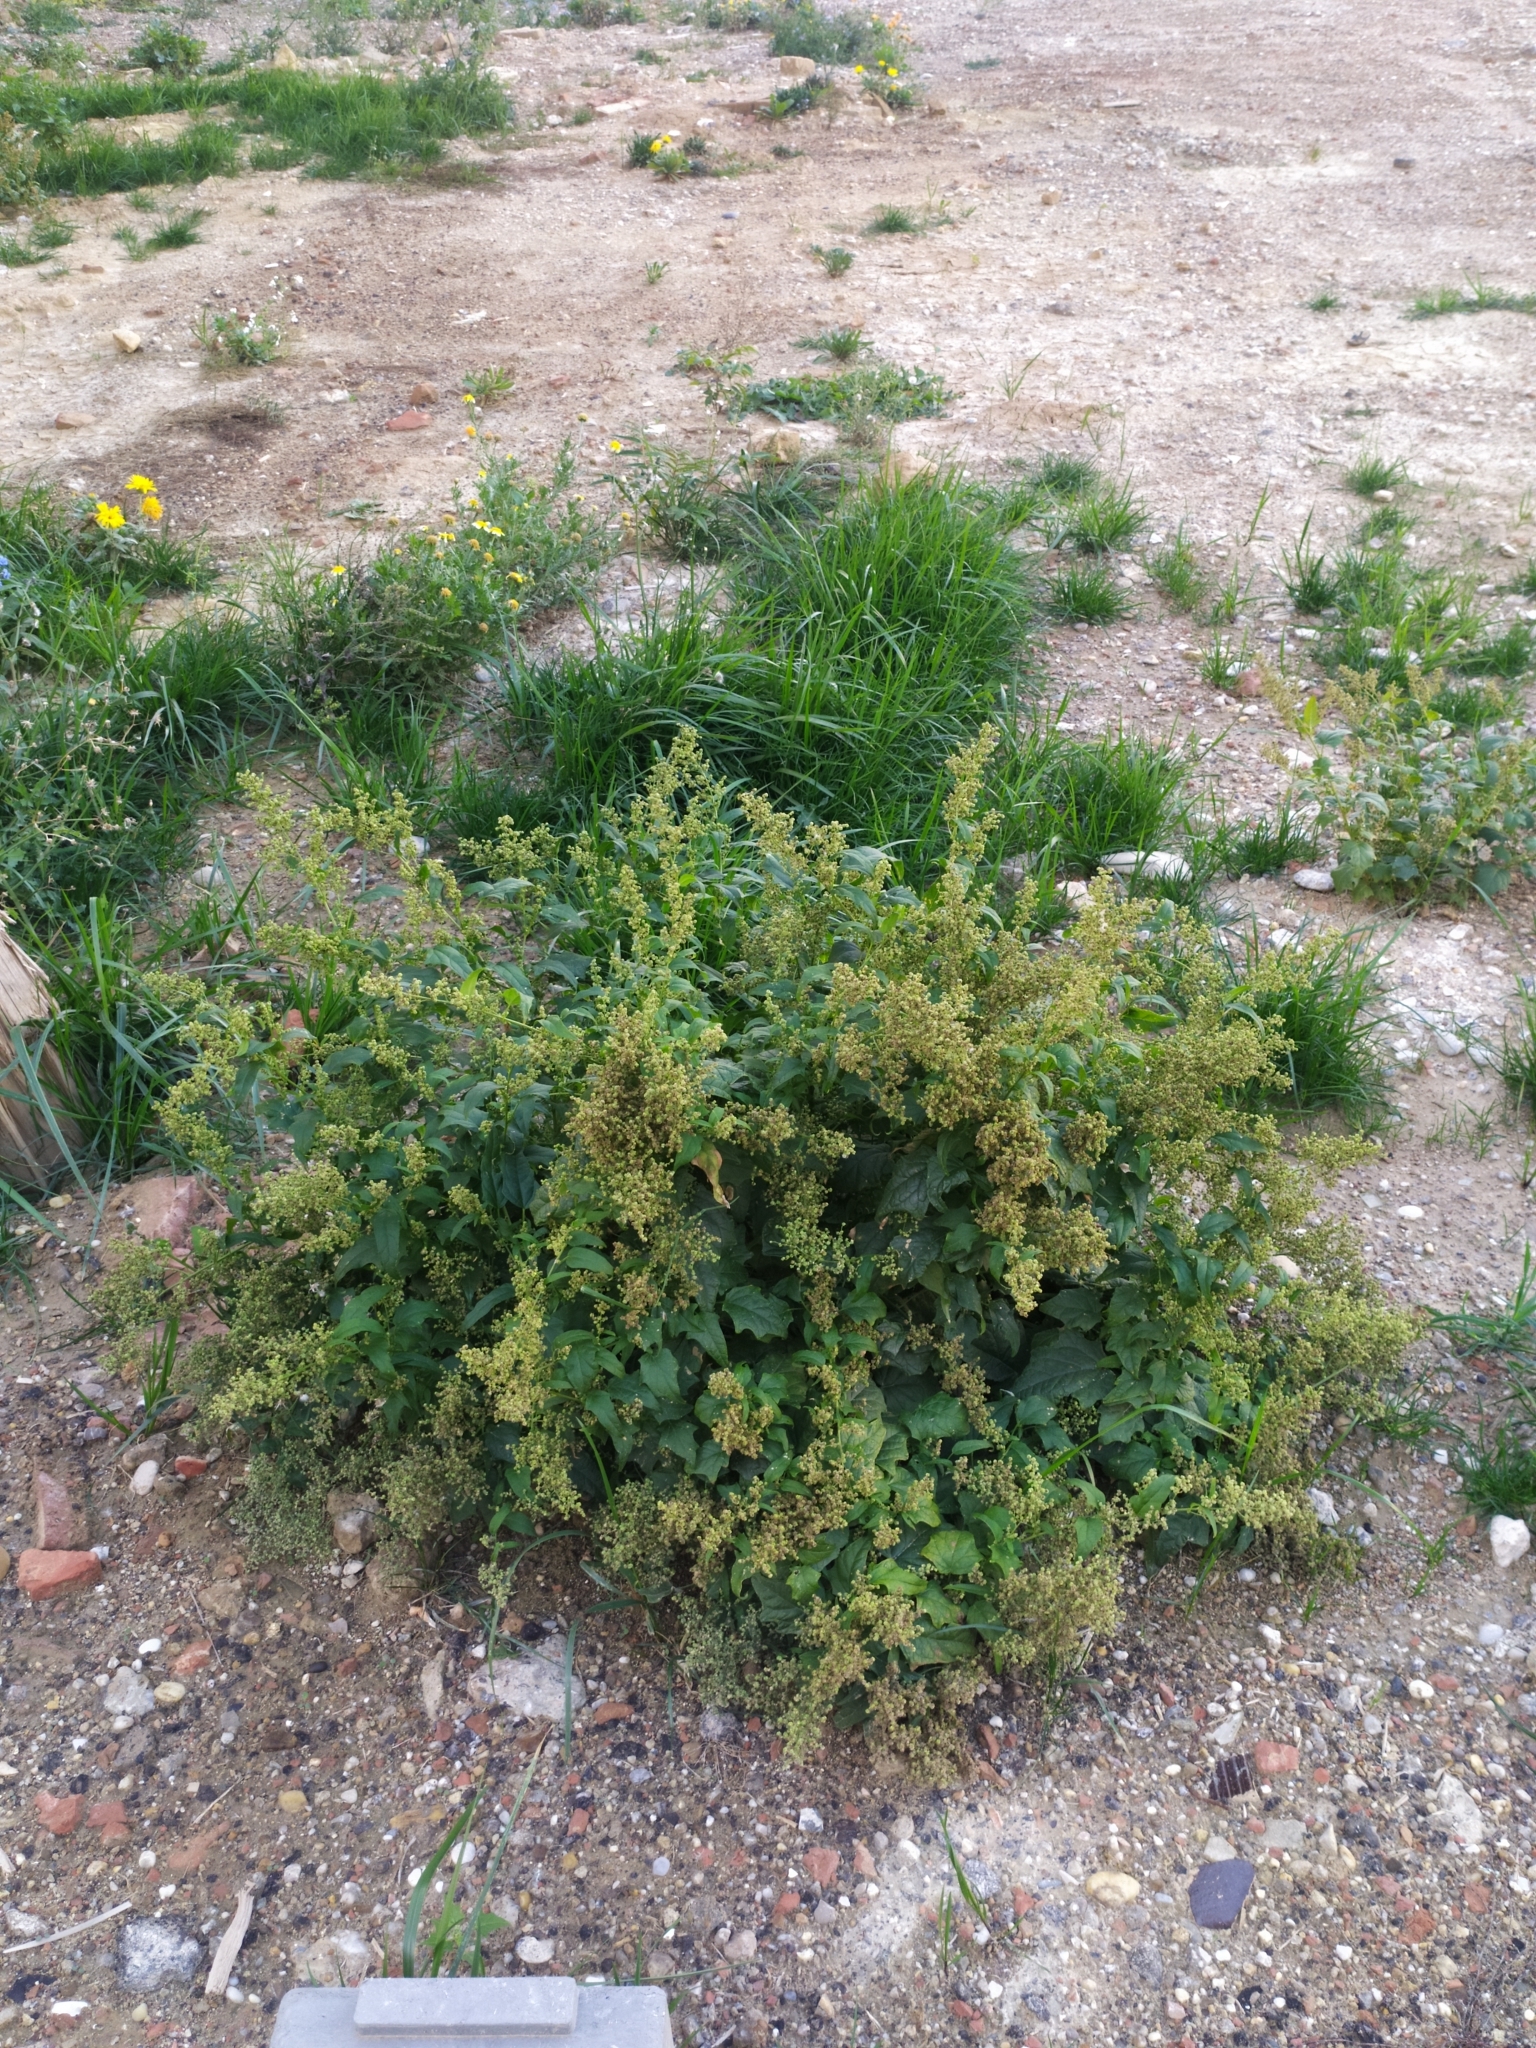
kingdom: Plantae
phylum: Tracheophyta
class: Magnoliopsida
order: Caryophyllales
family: Amaranthaceae
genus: Chenopodiastrum
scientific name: Chenopodiastrum hybridum
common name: Mapleleaf goosefoot
